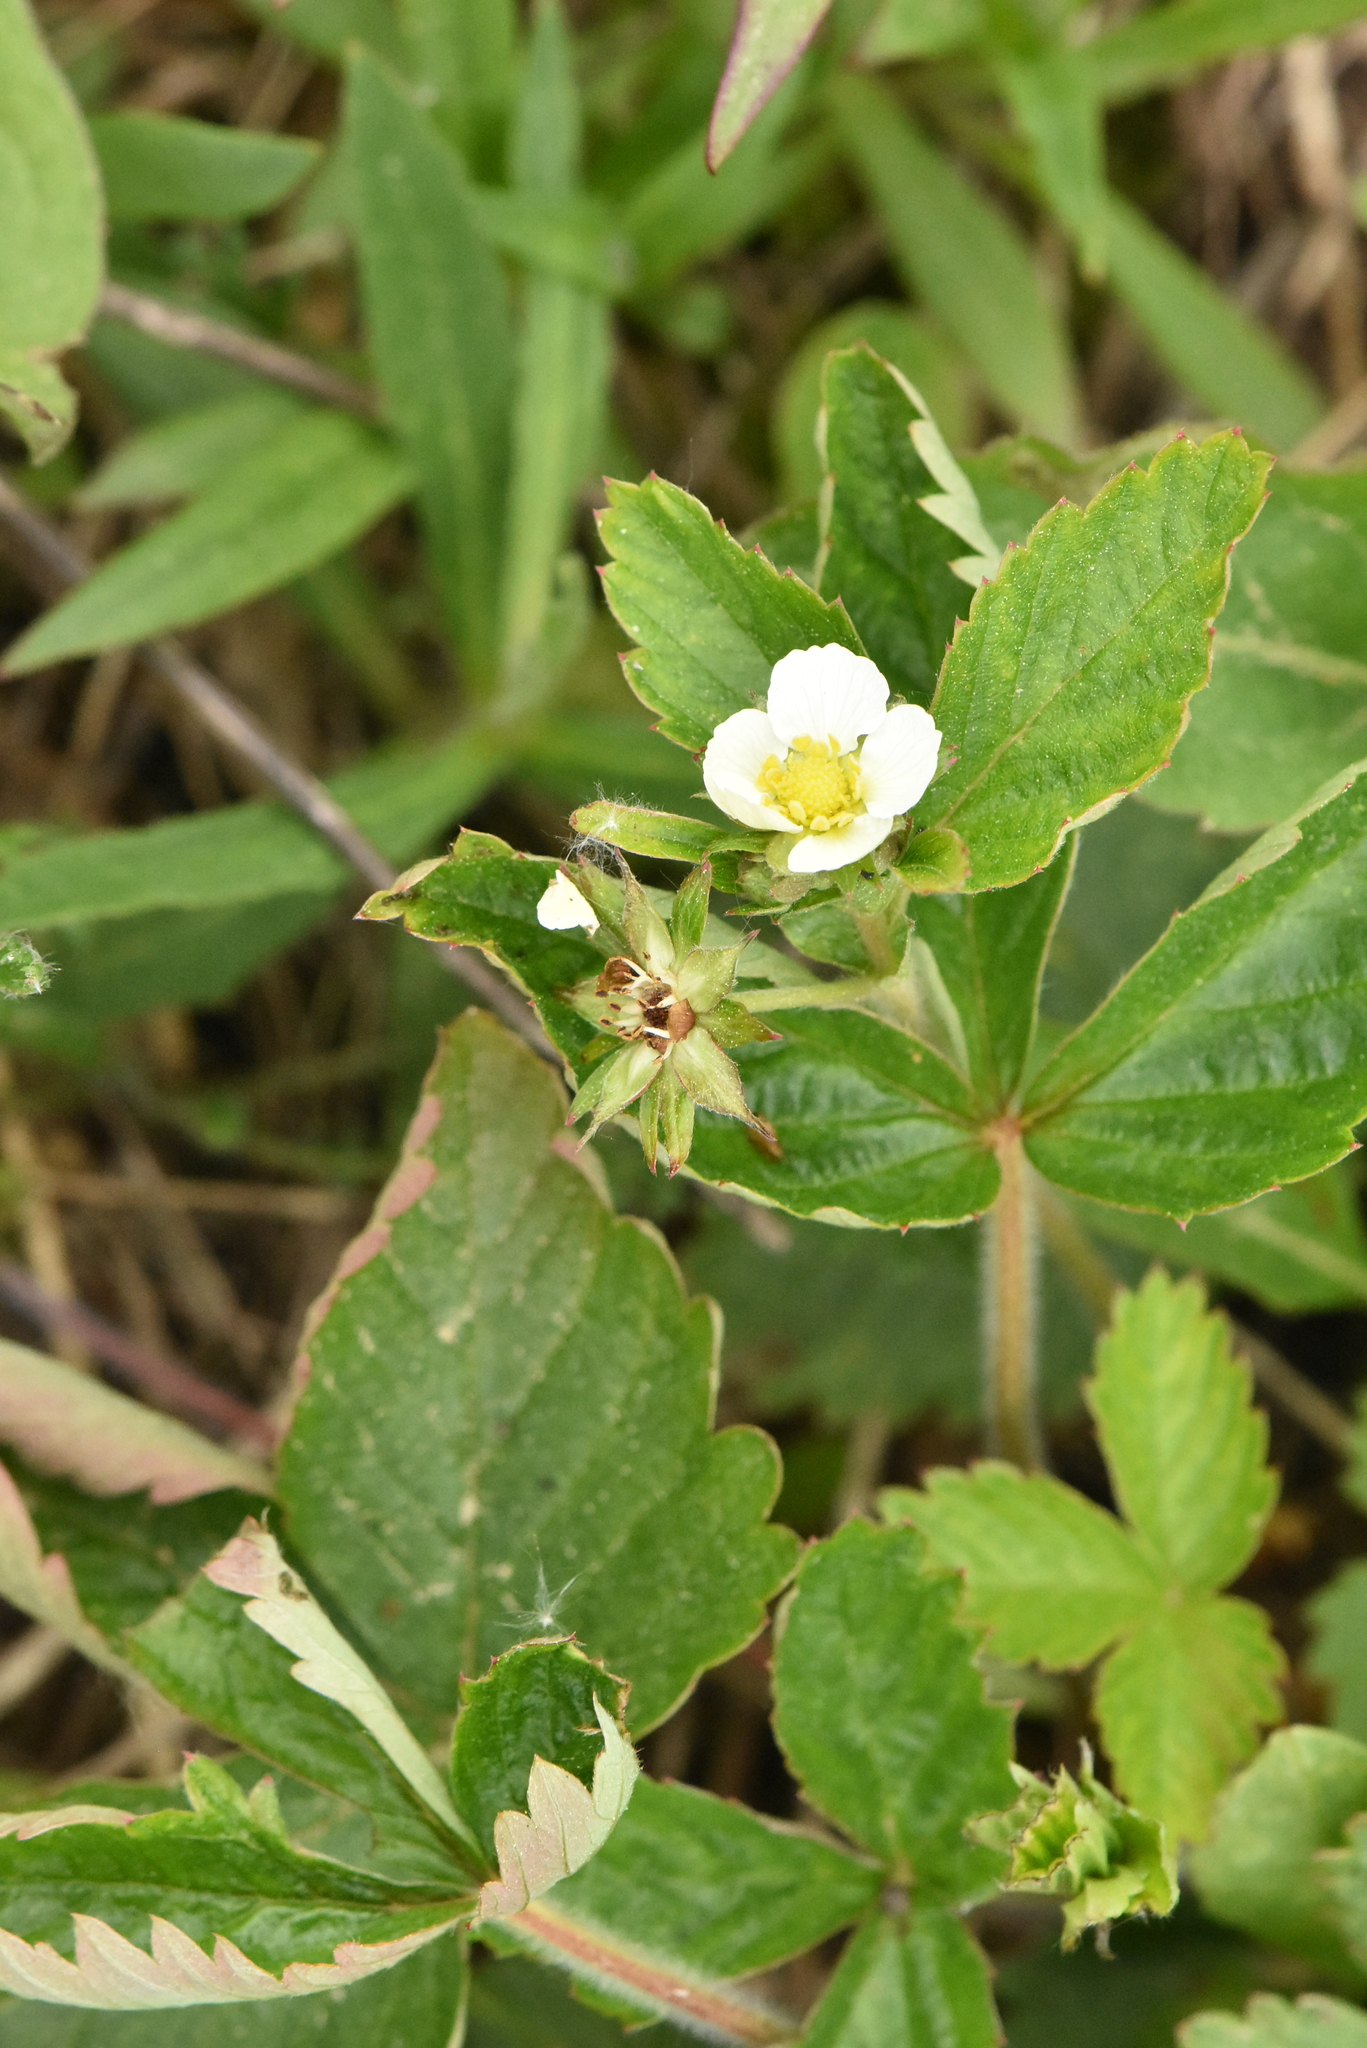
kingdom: Plantae
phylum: Tracheophyta
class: Magnoliopsida
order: Rosales
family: Rosaceae
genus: Fragaria
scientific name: Fragaria vesca
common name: Wild strawberry
